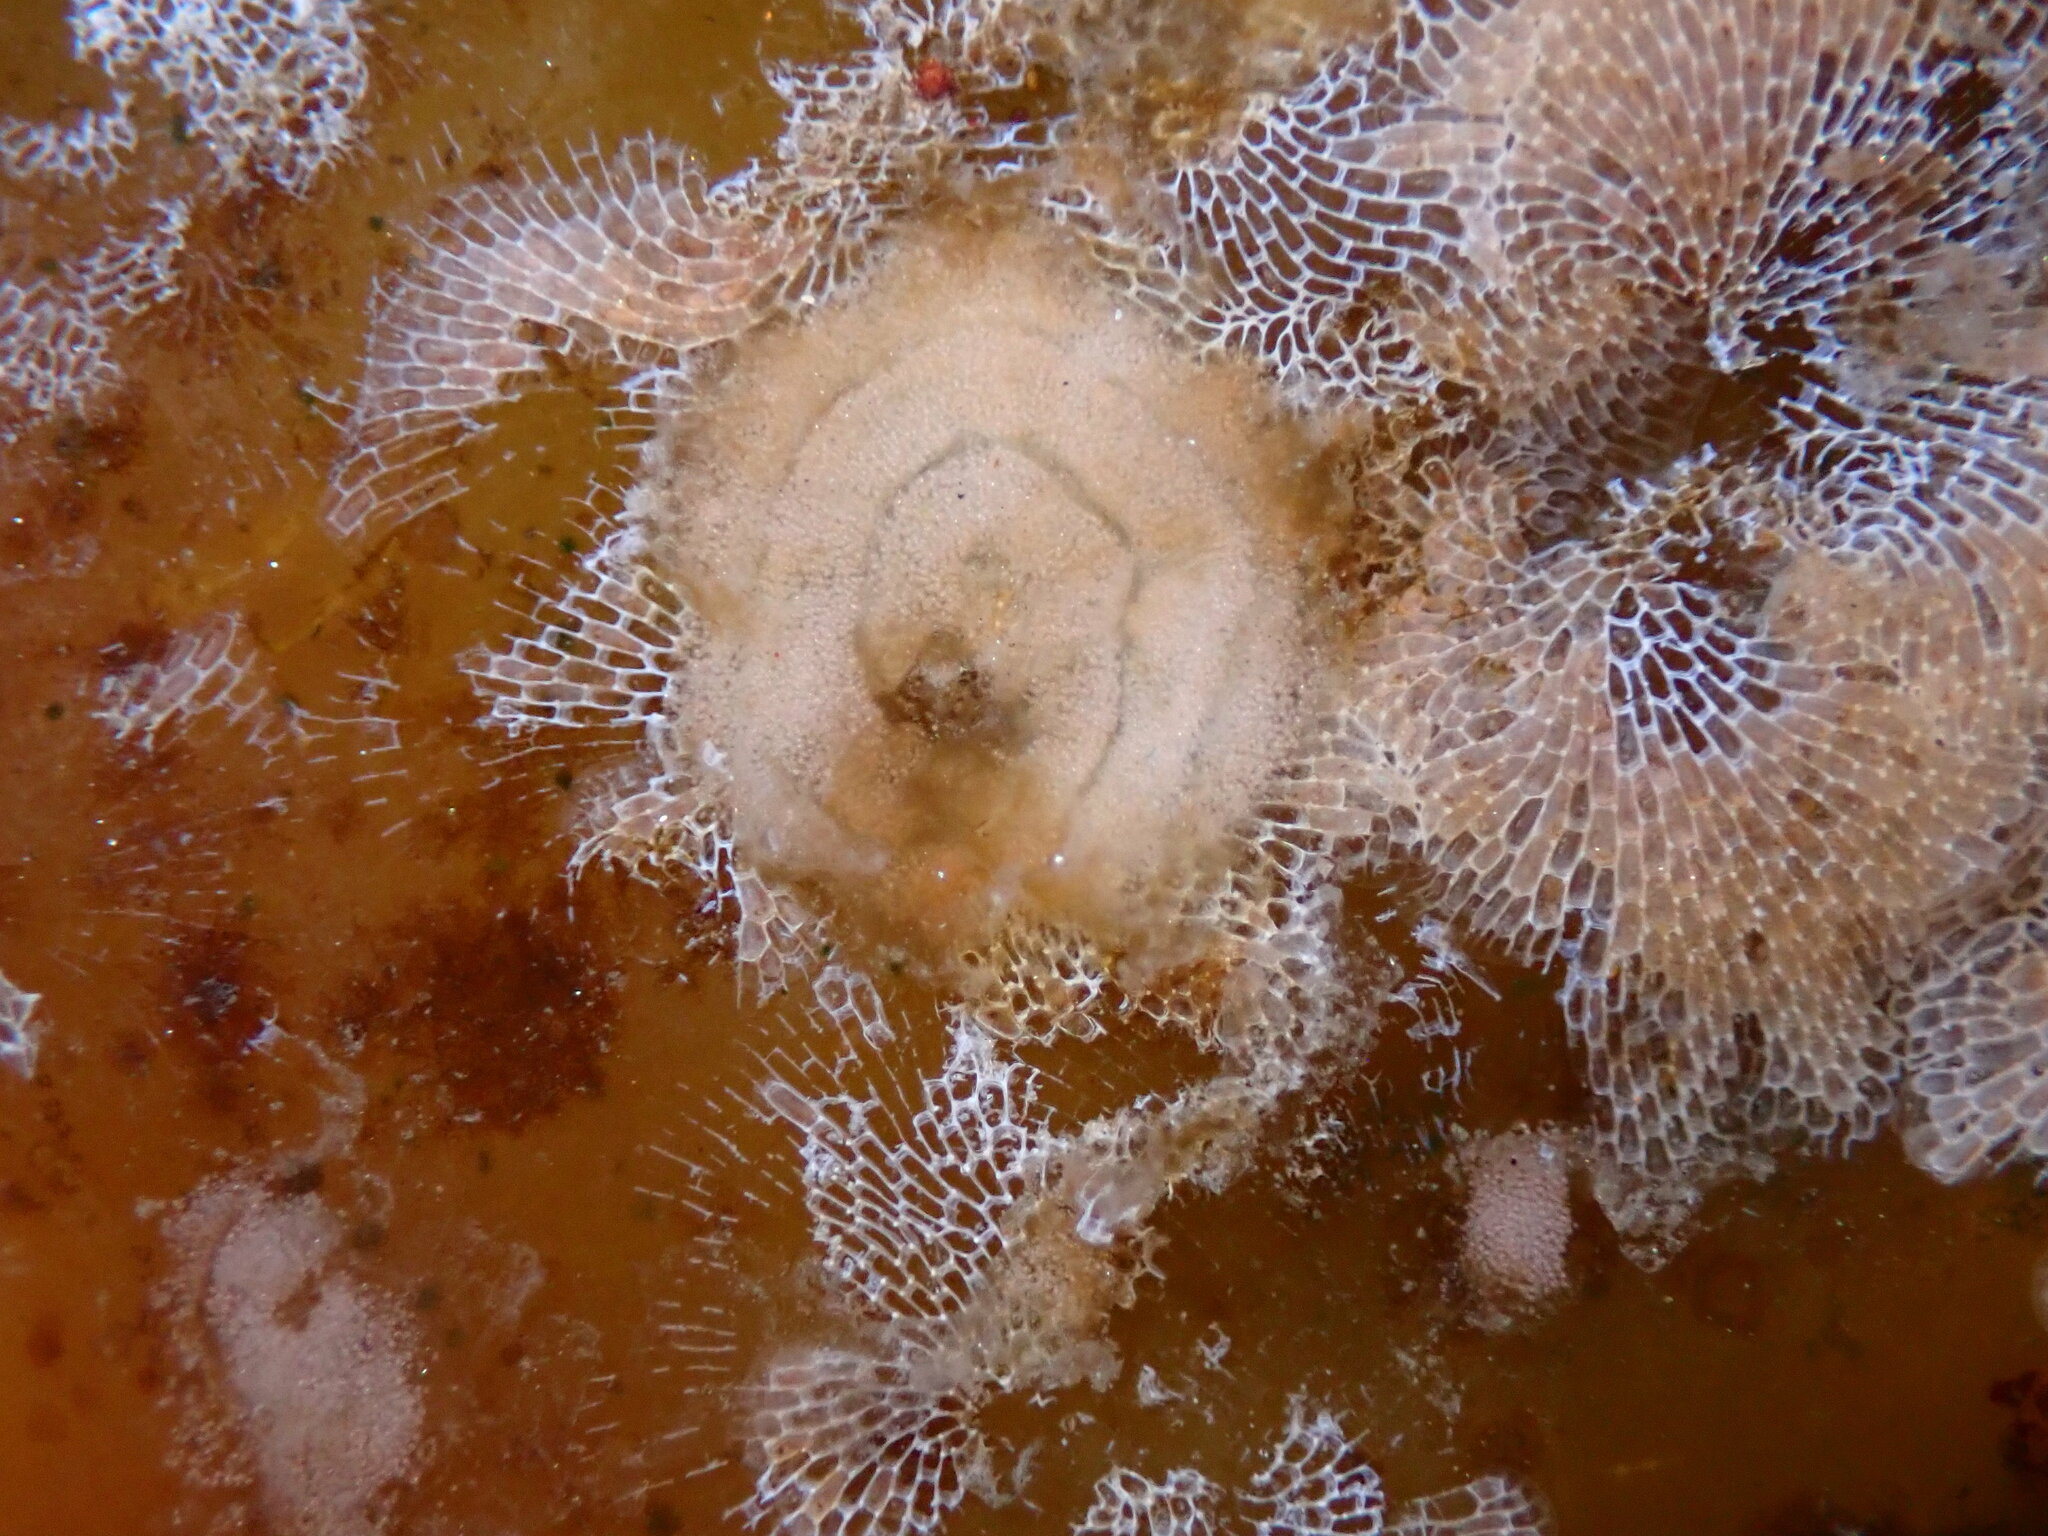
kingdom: Animalia
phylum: Mollusca
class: Gastropoda
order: Nudibranchia
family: Corambidae
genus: Corambe
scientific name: Corambe pacifica
